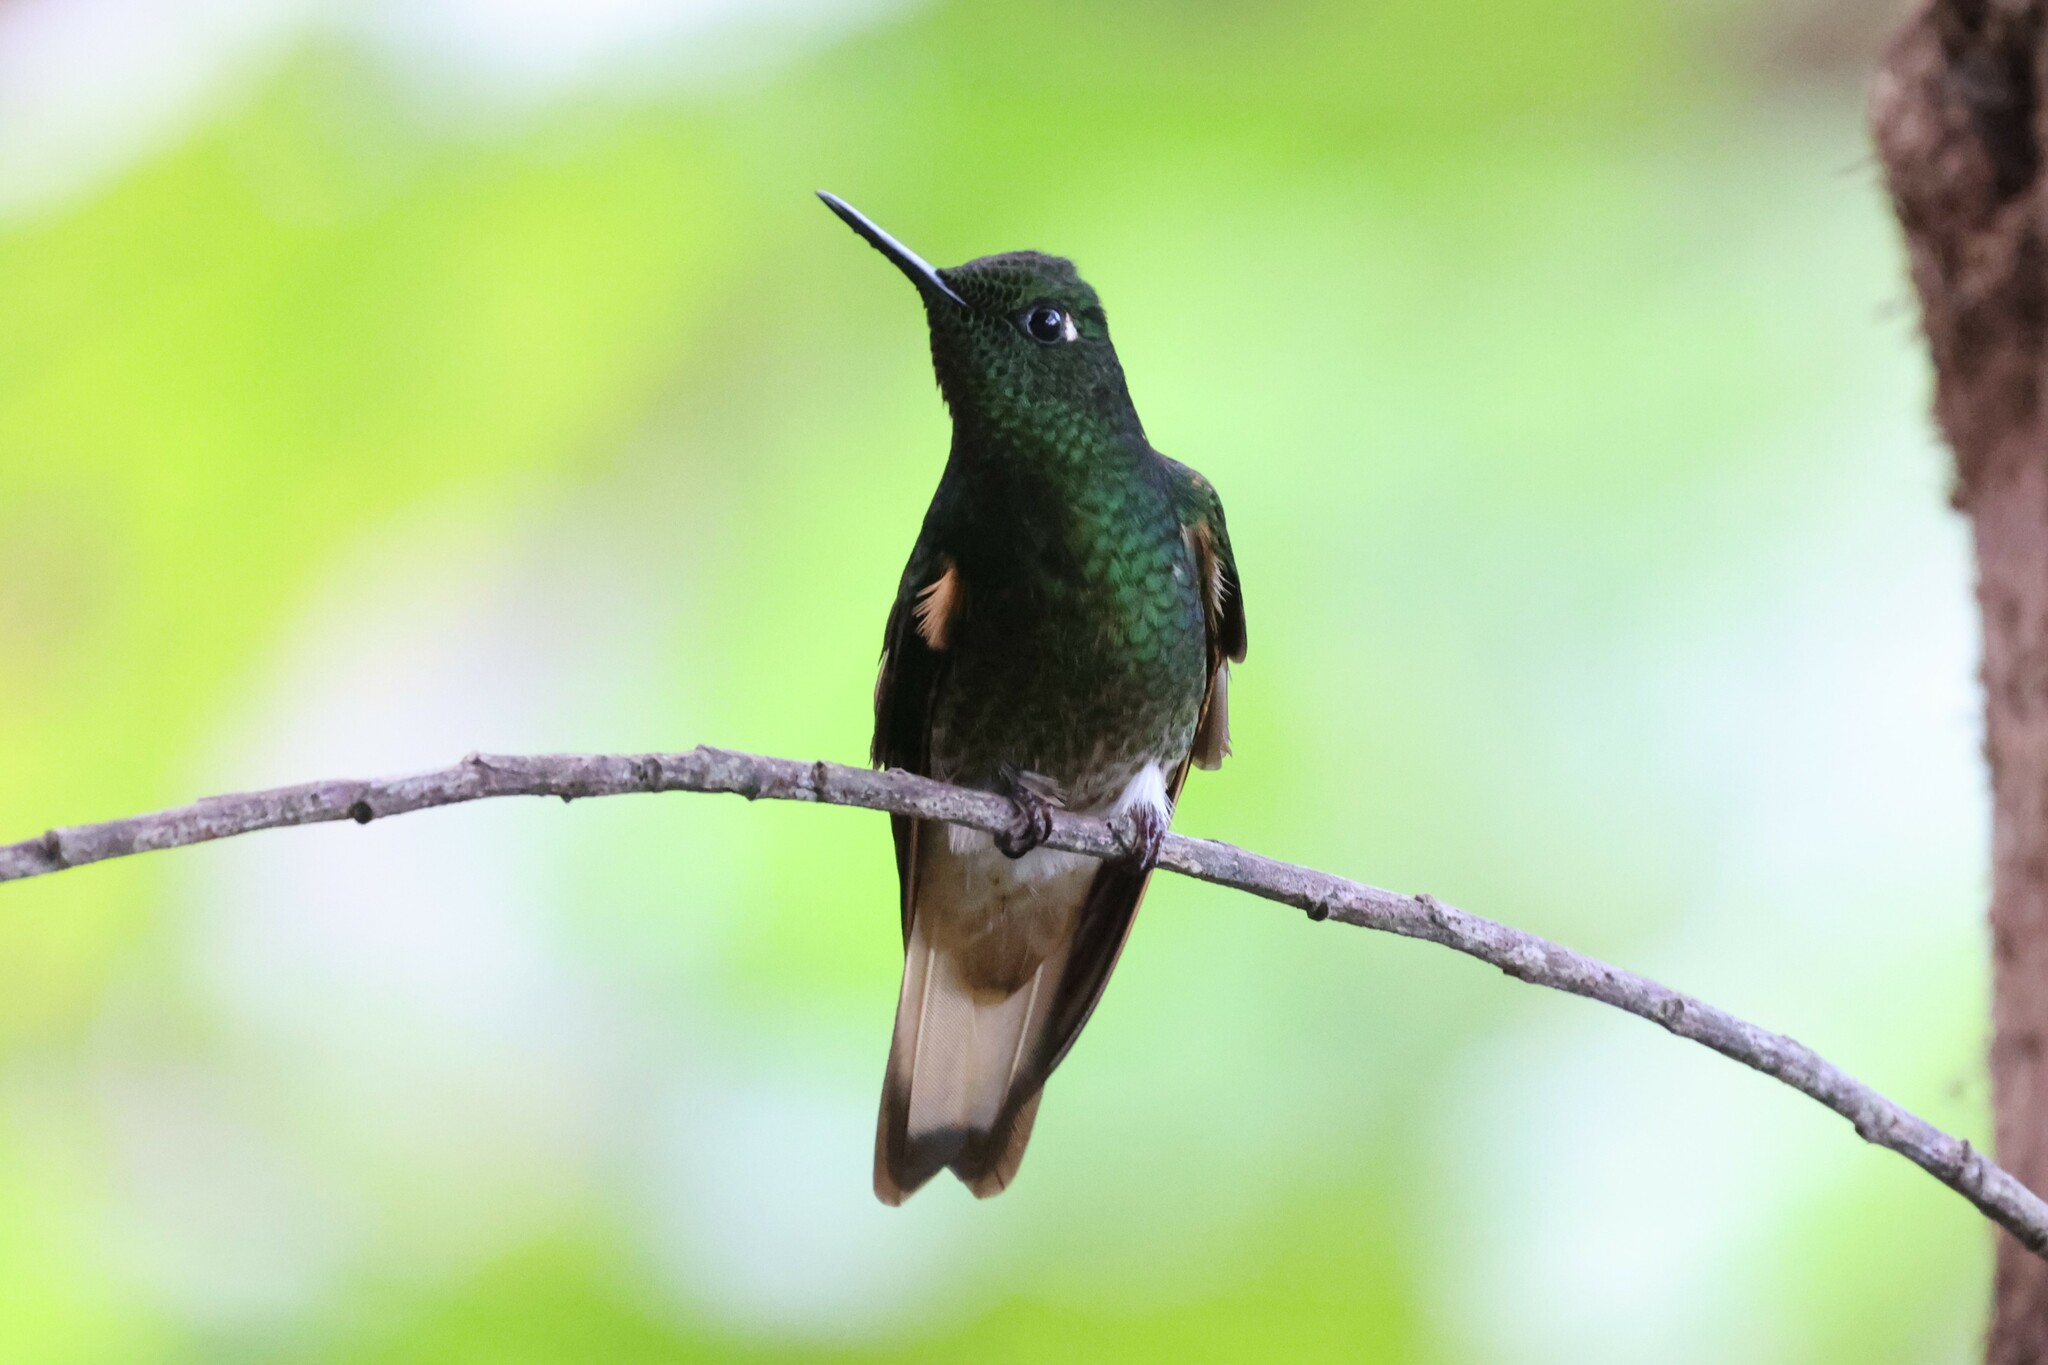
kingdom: Animalia
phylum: Chordata
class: Aves
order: Apodiformes
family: Trochilidae
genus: Boissonneaua
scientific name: Boissonneaua flavescens
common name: Buff-tailed coronet
